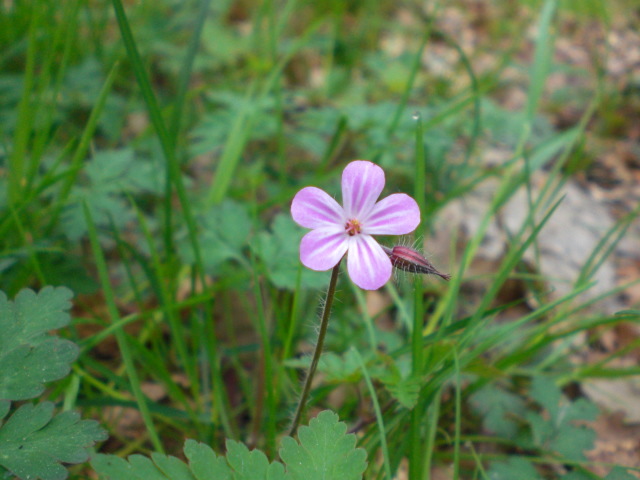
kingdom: Plantae
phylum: Tracheophyta
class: Magnoliopsida
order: Geraniales
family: Geraniaceae
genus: Geranium
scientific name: Geranium robertianum
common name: Herb-robert
